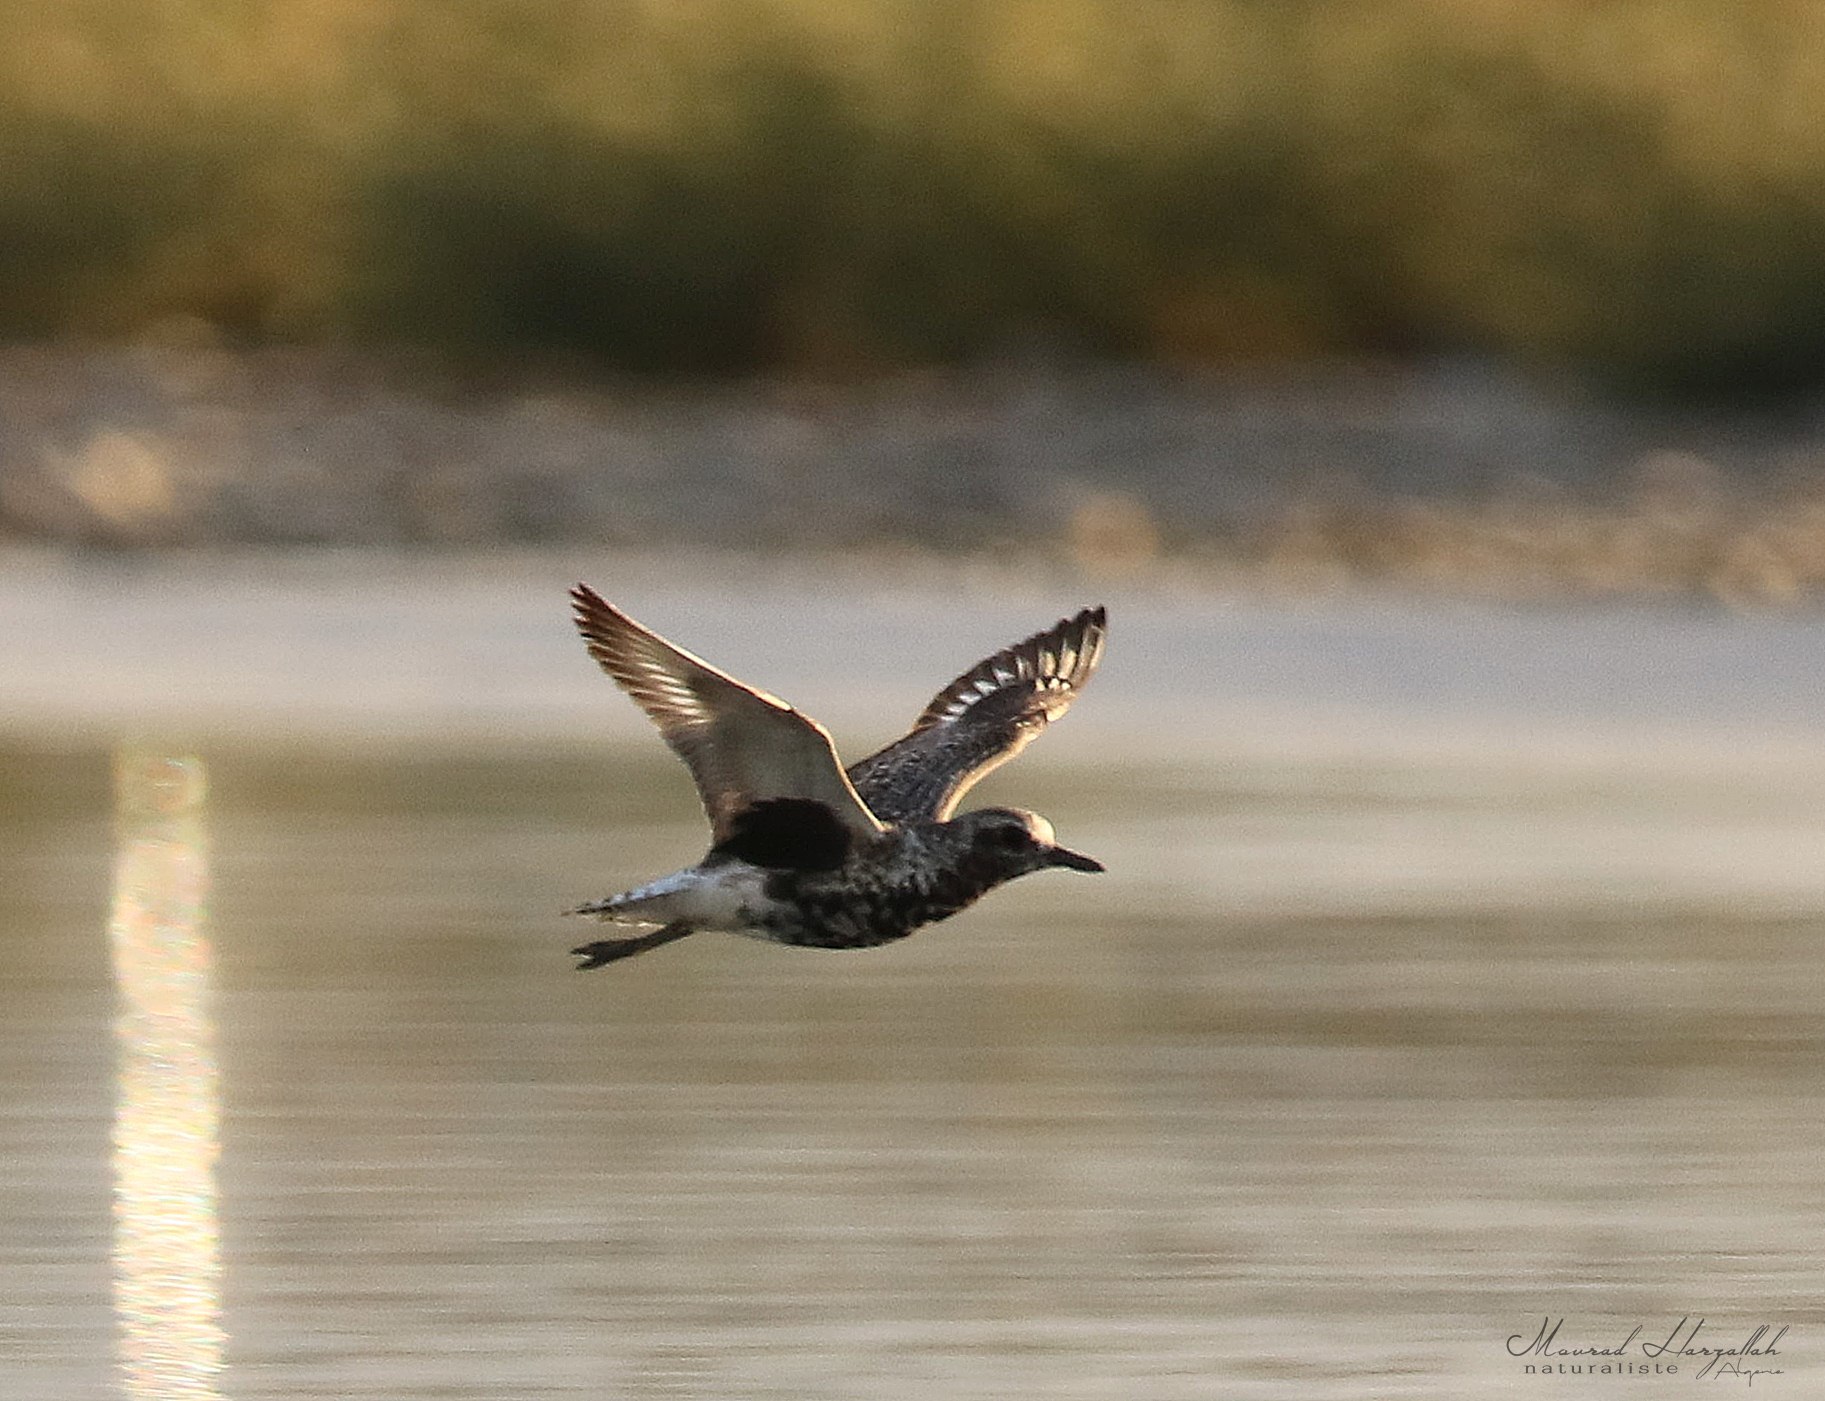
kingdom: Animalia
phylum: Chordata
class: Aves
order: Charadriiformes
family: Charadriidae
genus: Pluvialis
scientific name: Pluvialis squatarola
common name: Grey plover
